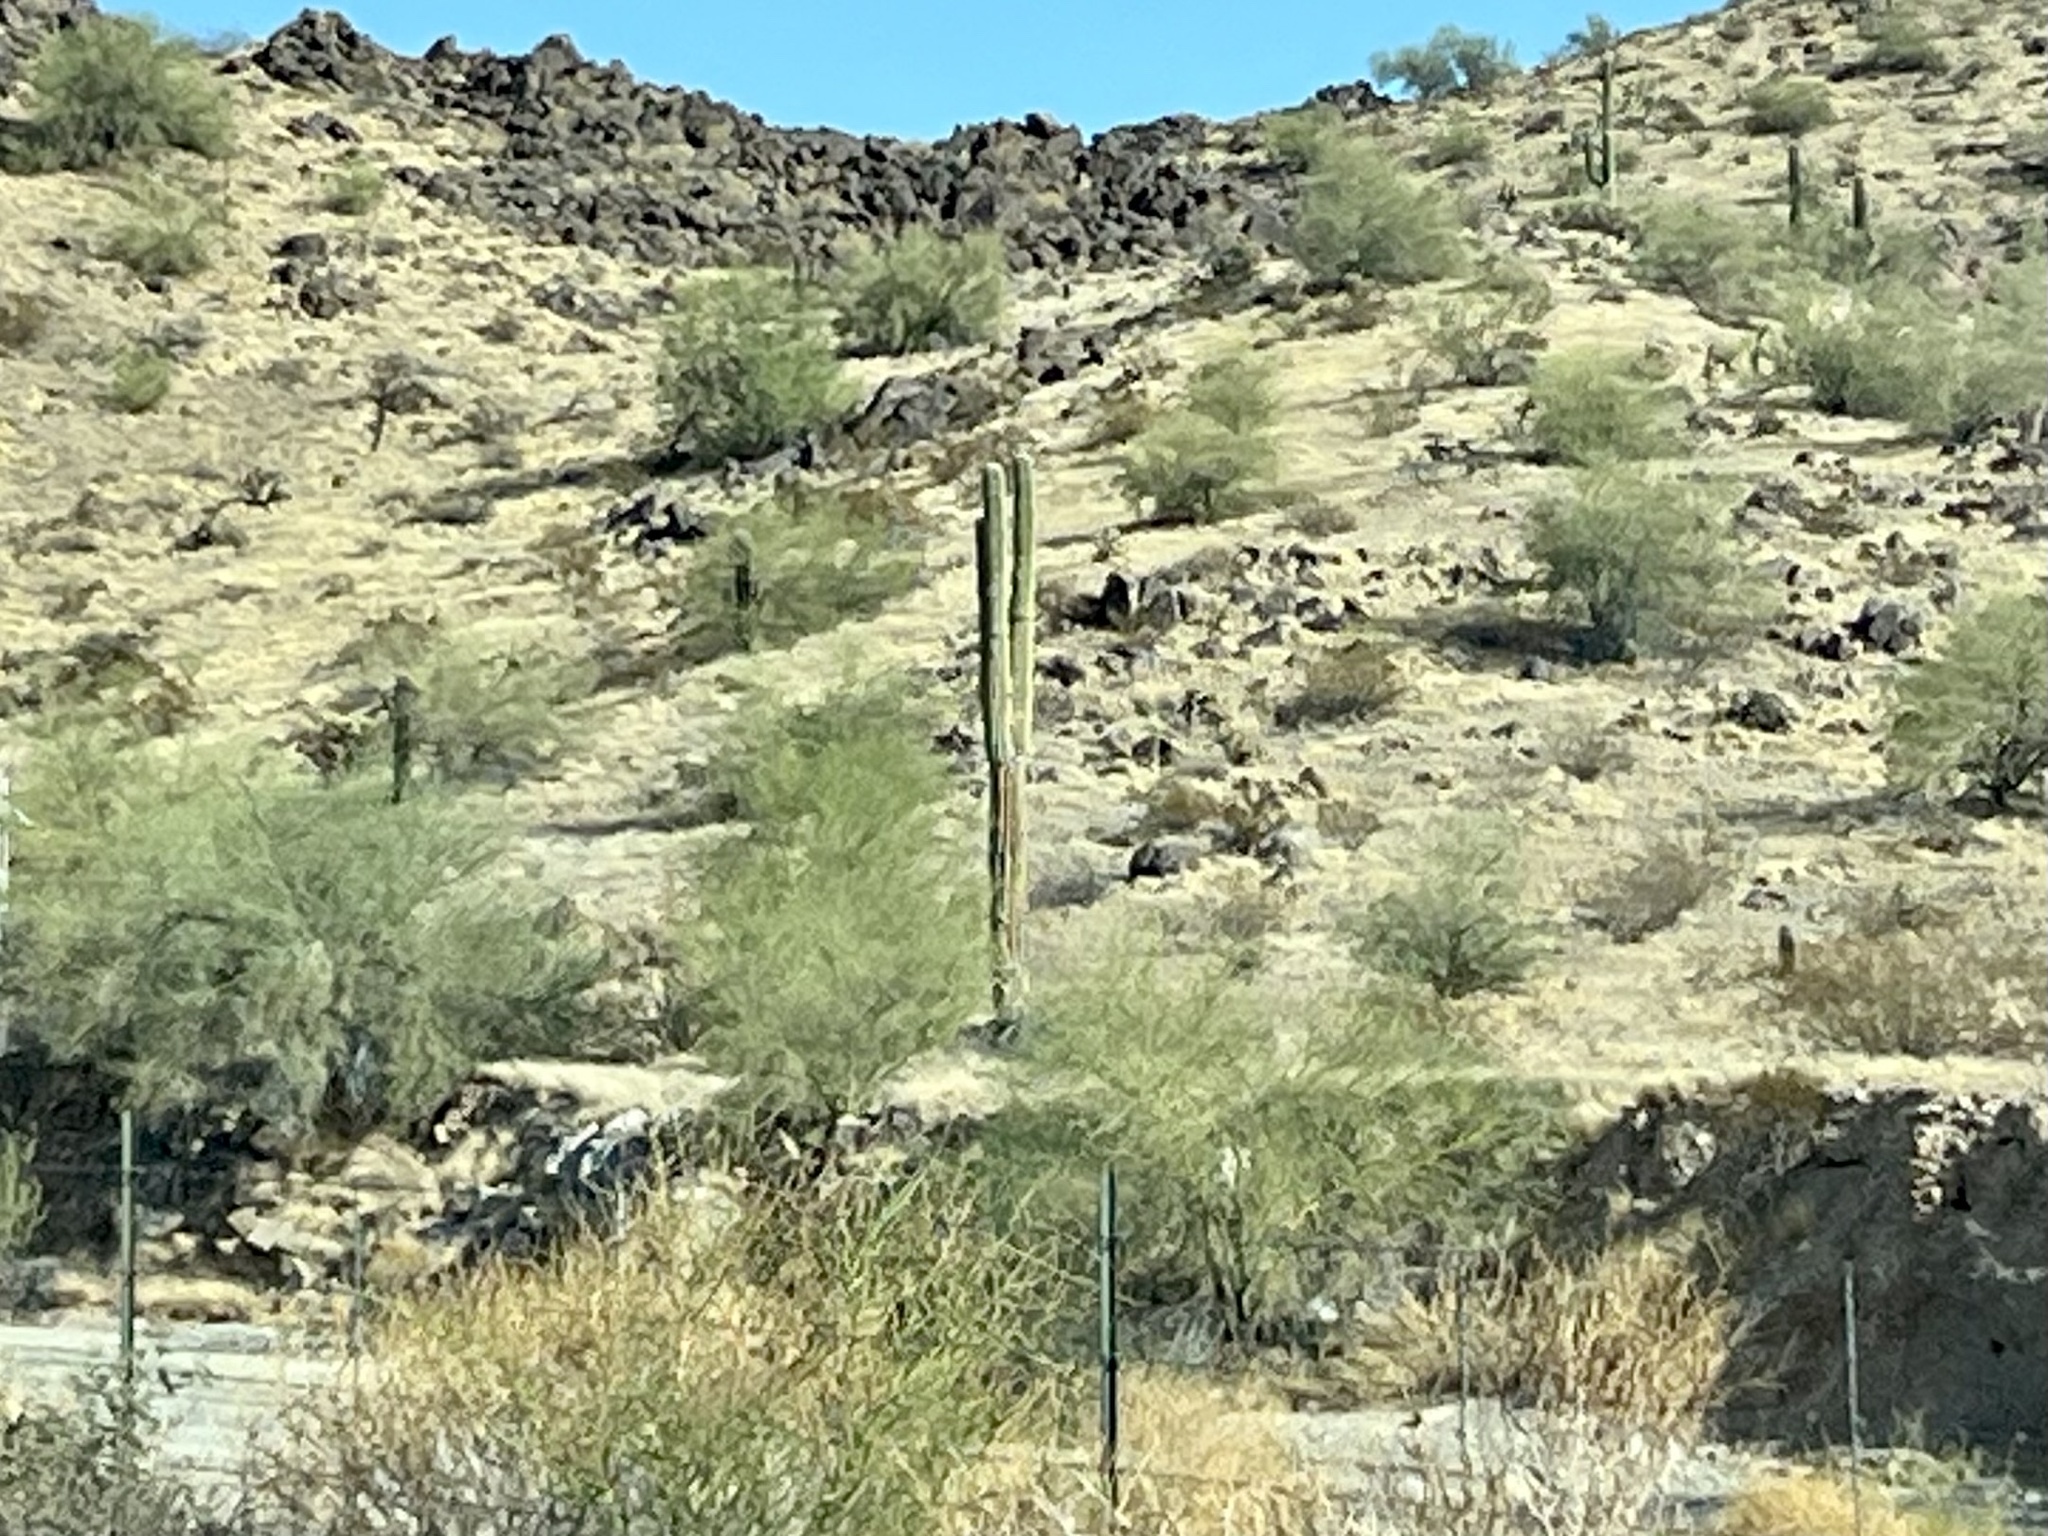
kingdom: Plantae
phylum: Tracheophyta
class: Magnoliopsida
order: Caryophyllales
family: Cactaceae
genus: Carnegiea
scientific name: Carnegiea gigantea
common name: Saguaro
